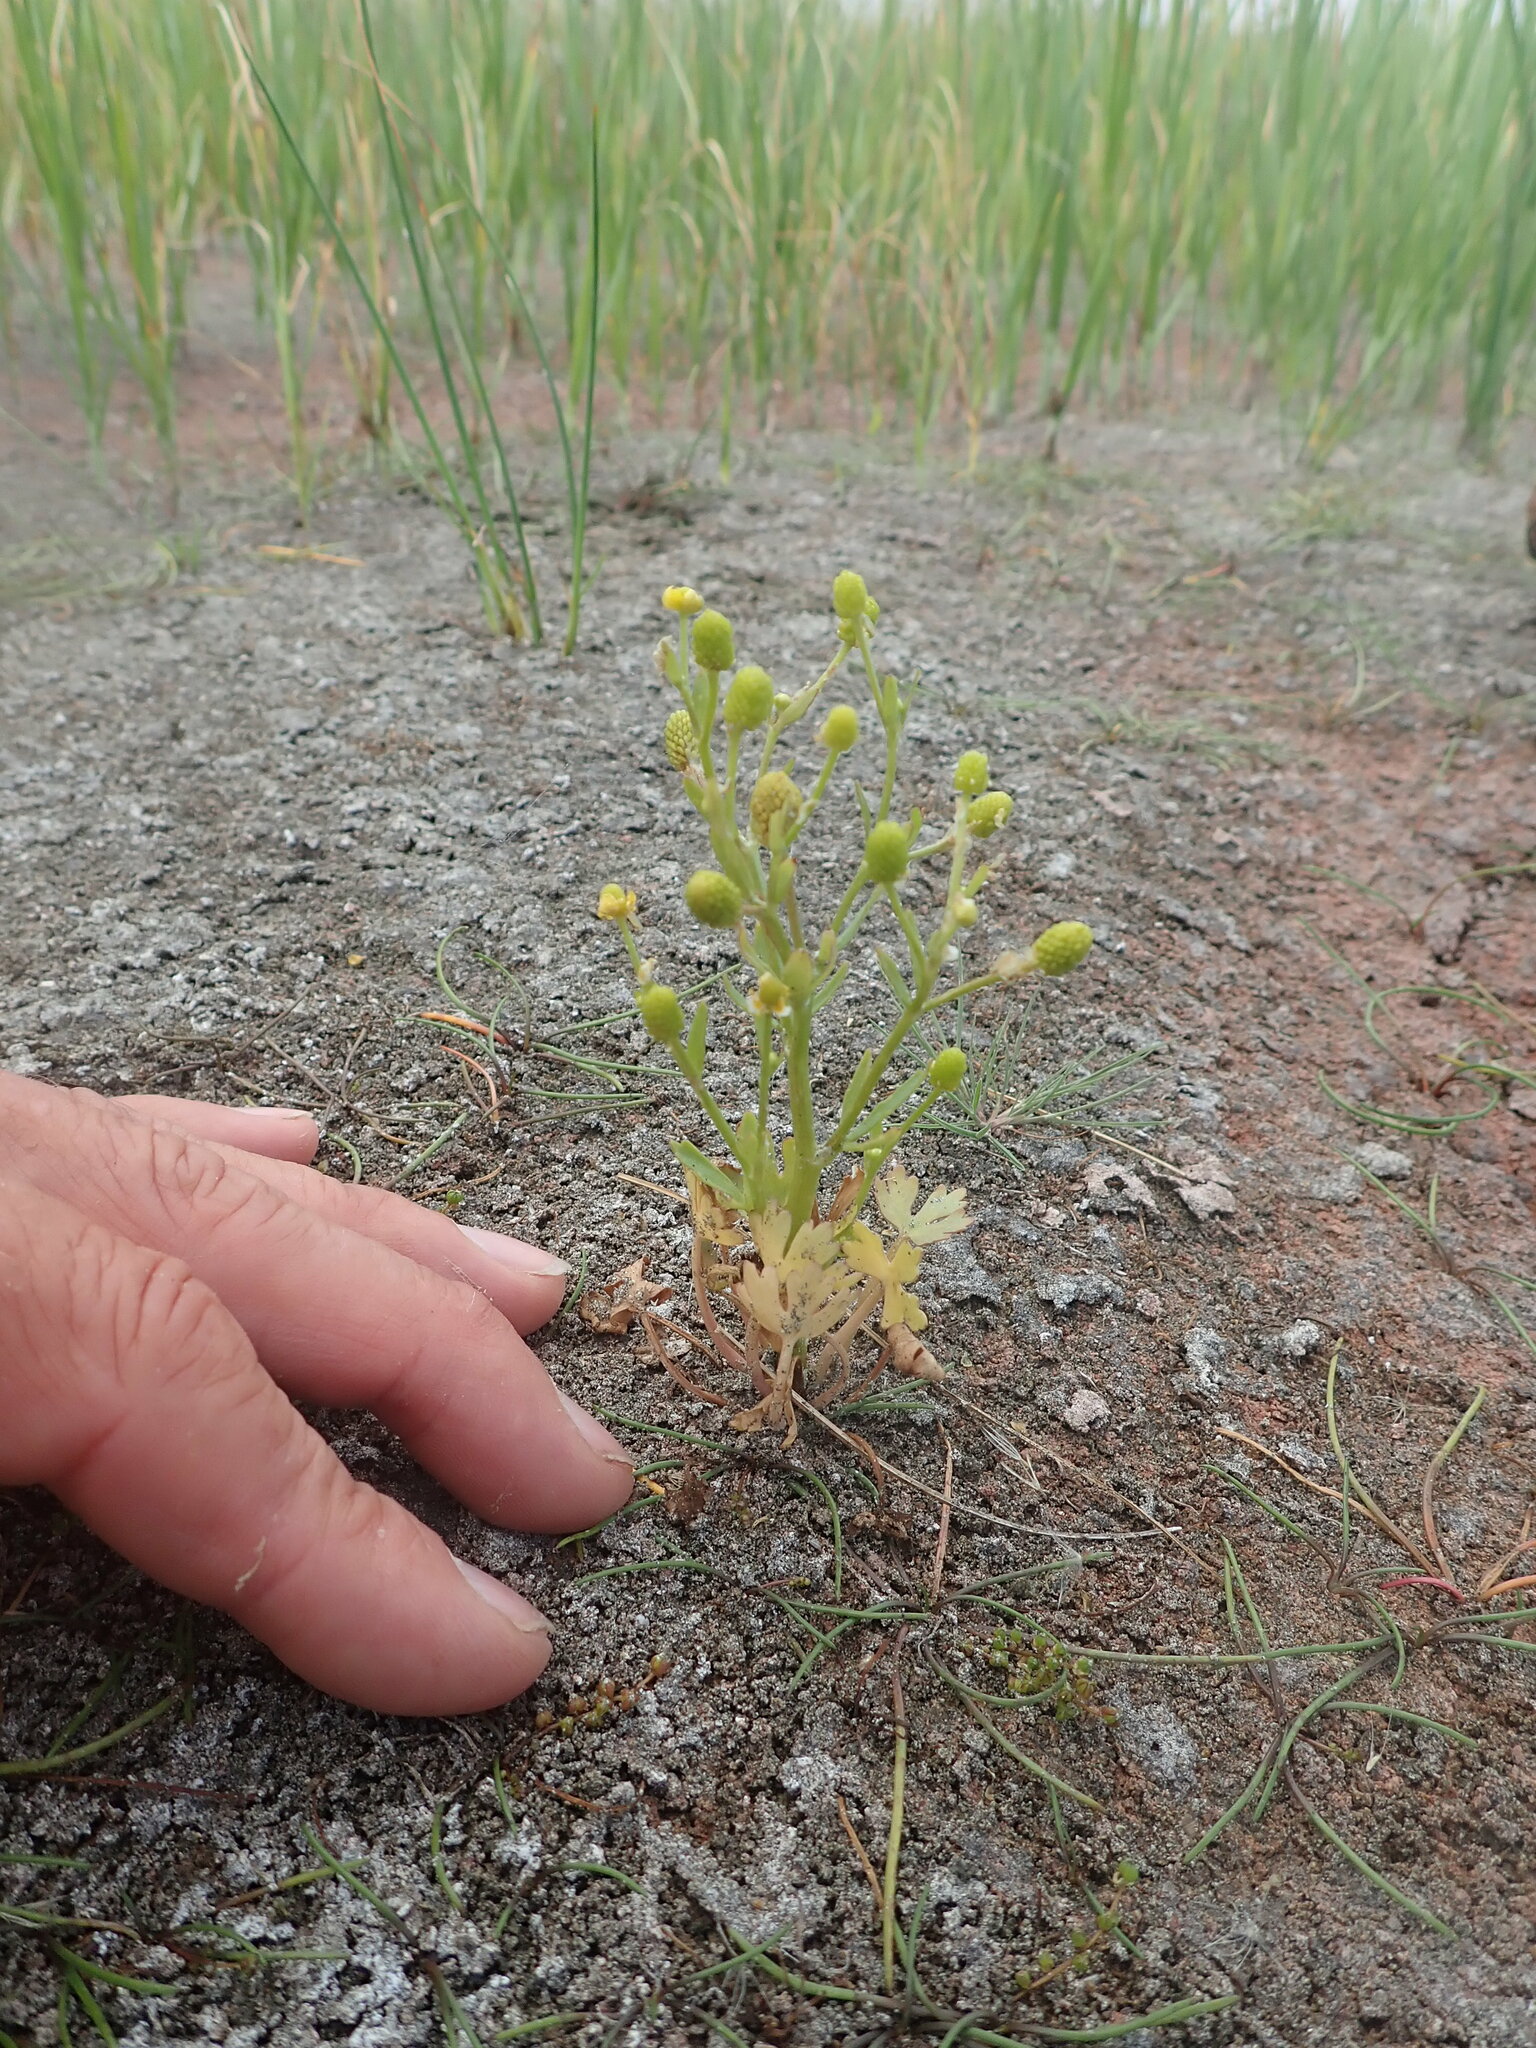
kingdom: Plantae
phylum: Tracheophyta
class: Magnoliopsida
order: Ranunculales
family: Ranunculaceae
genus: Ranunculus
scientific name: Ranunculus sceleratus
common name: Celery-leaved buttercup
